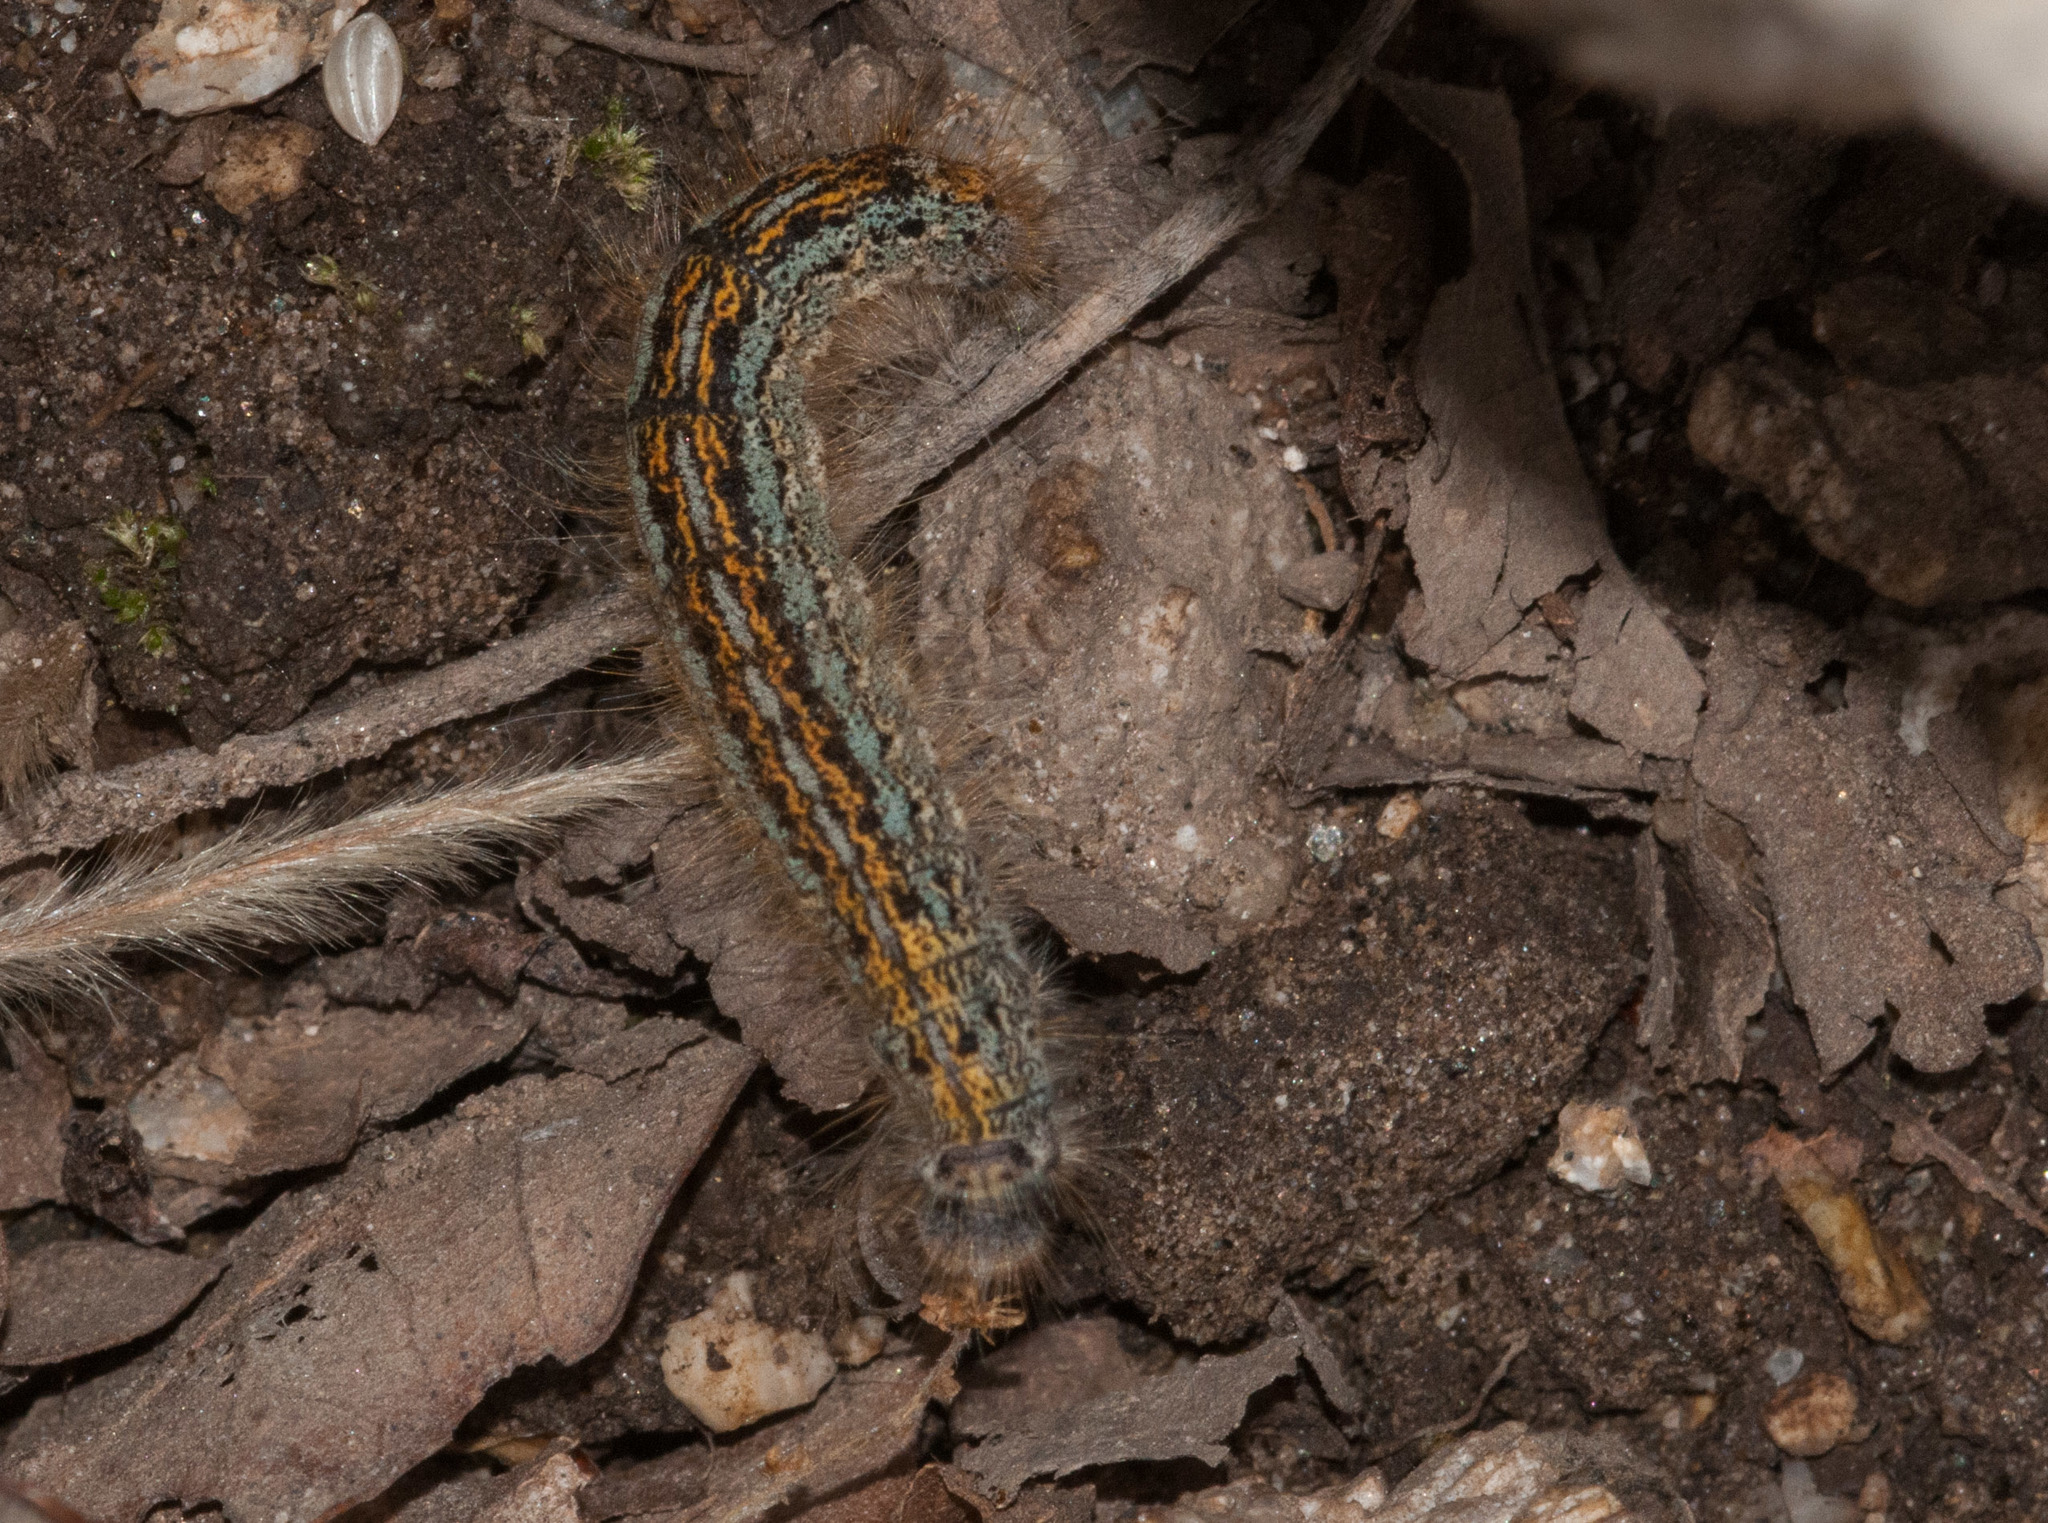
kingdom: Animalia
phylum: Arthropoda
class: Insecta
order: Lepidoptera
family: Lasiocampidae
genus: Malacosoma
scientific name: Malacosoma californica
